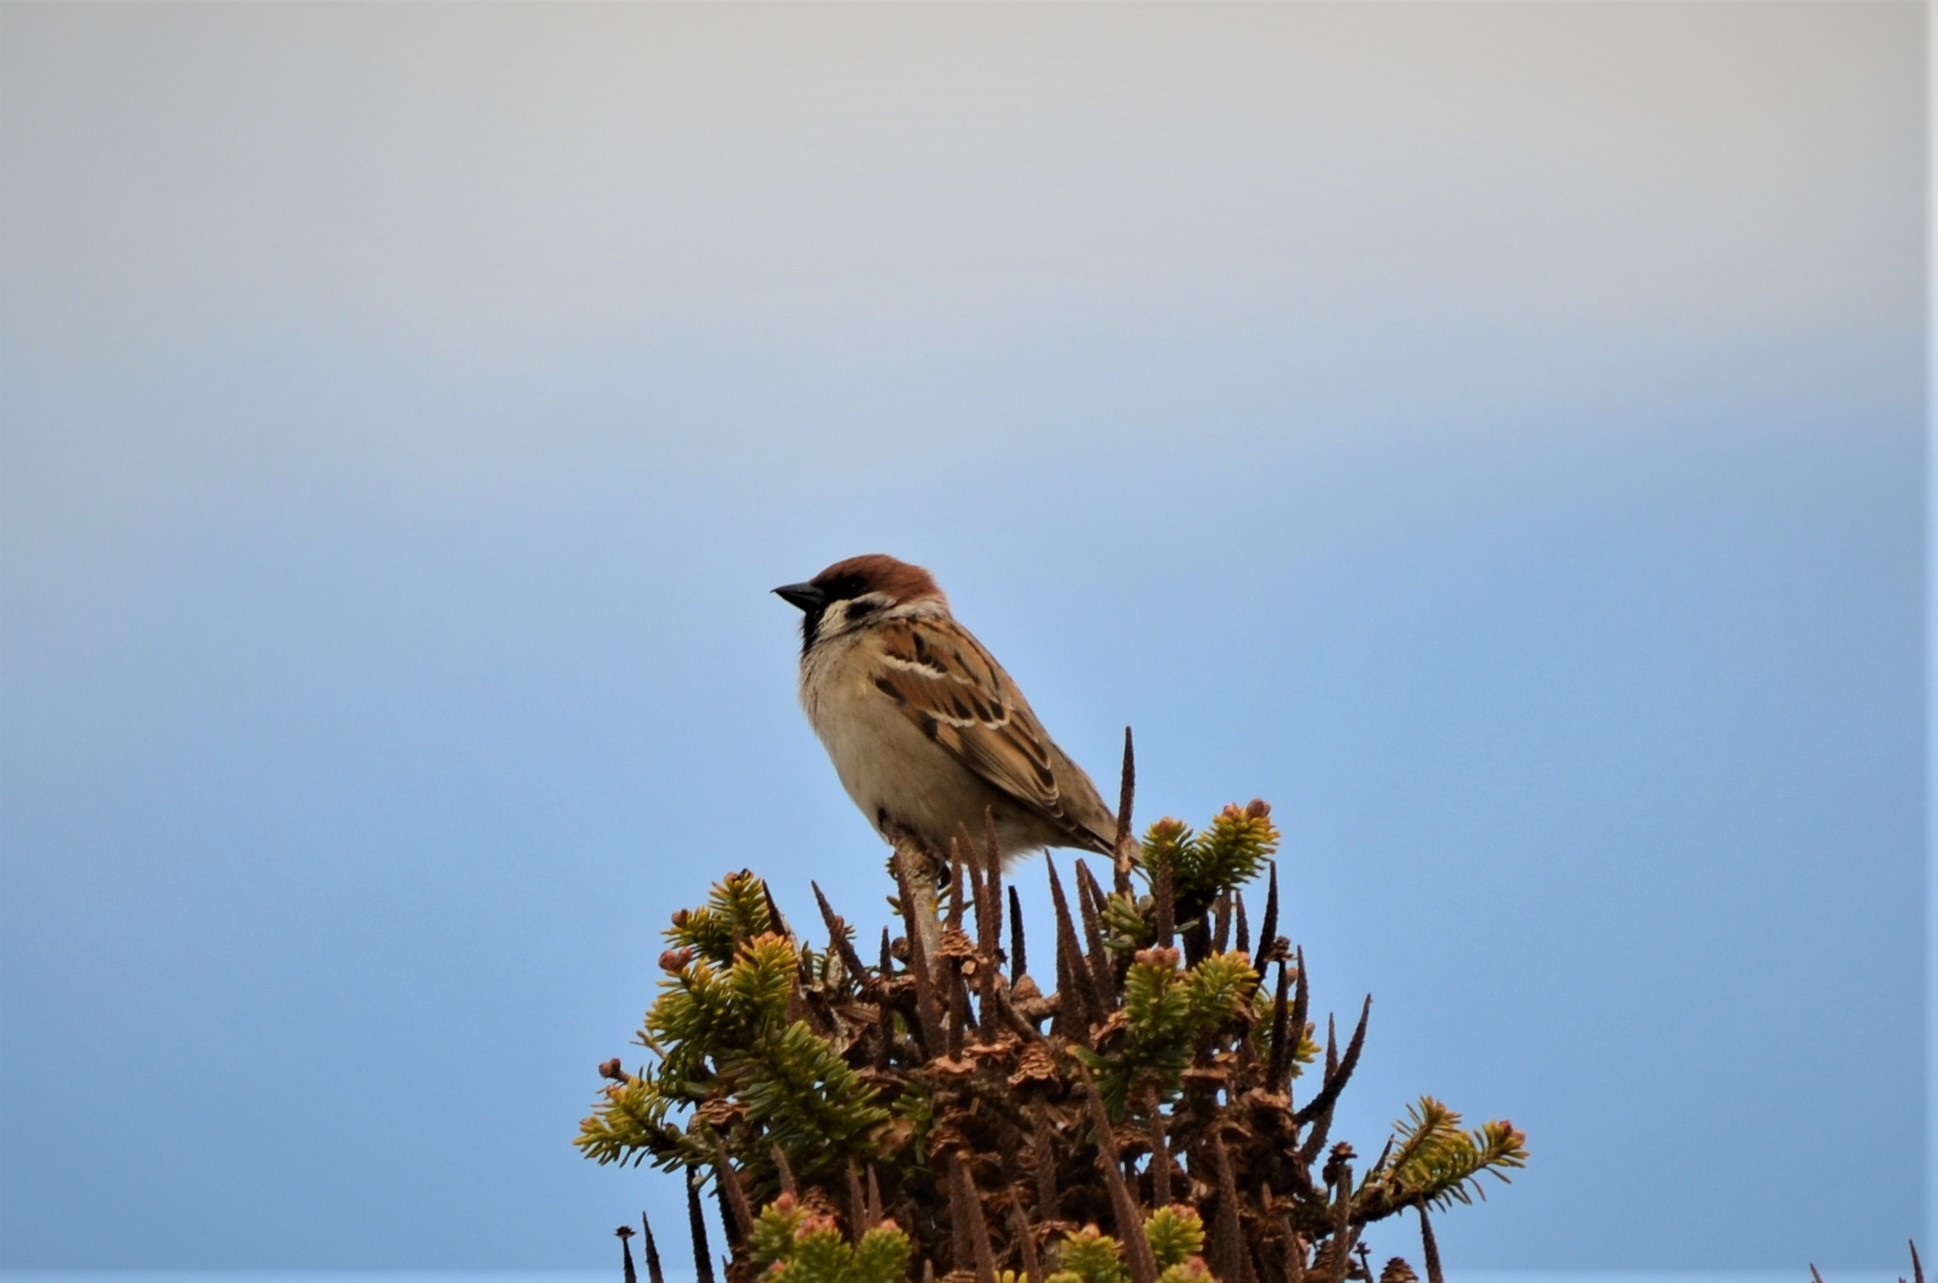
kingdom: Animalia
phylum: Chordata
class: Aves
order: Passeriformes
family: Passeridae
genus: Passer
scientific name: Passer montanus
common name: Eurasian tree sparrow
